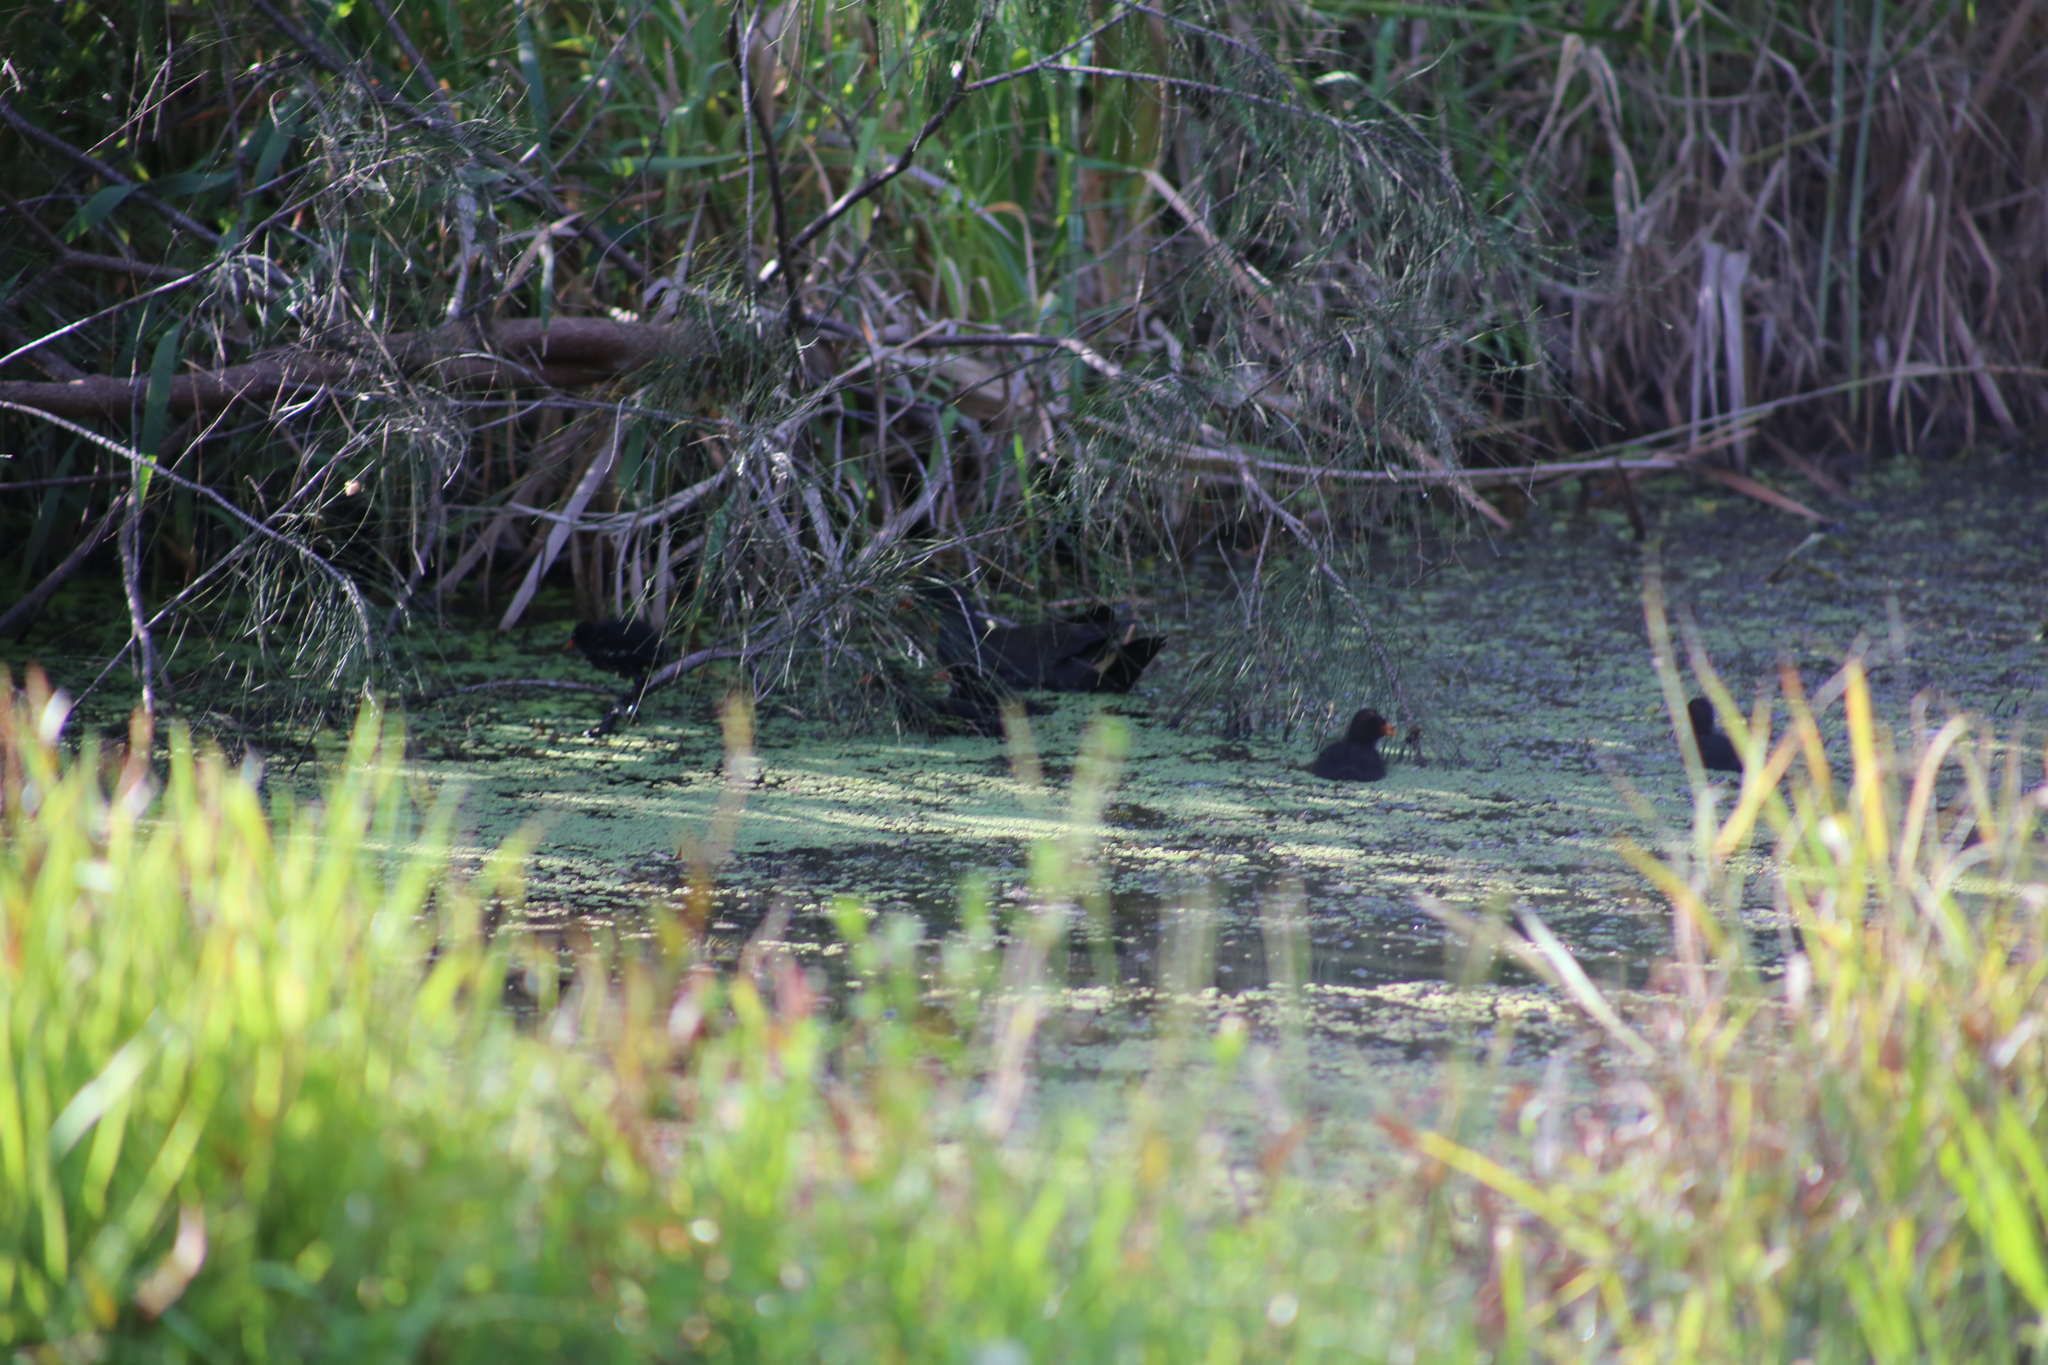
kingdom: Animalia
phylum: Chordata
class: Aves
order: Gruiformes
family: Rallidae
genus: Gallinula
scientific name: Gallinula tenebrosa
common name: Dusky moorhen
